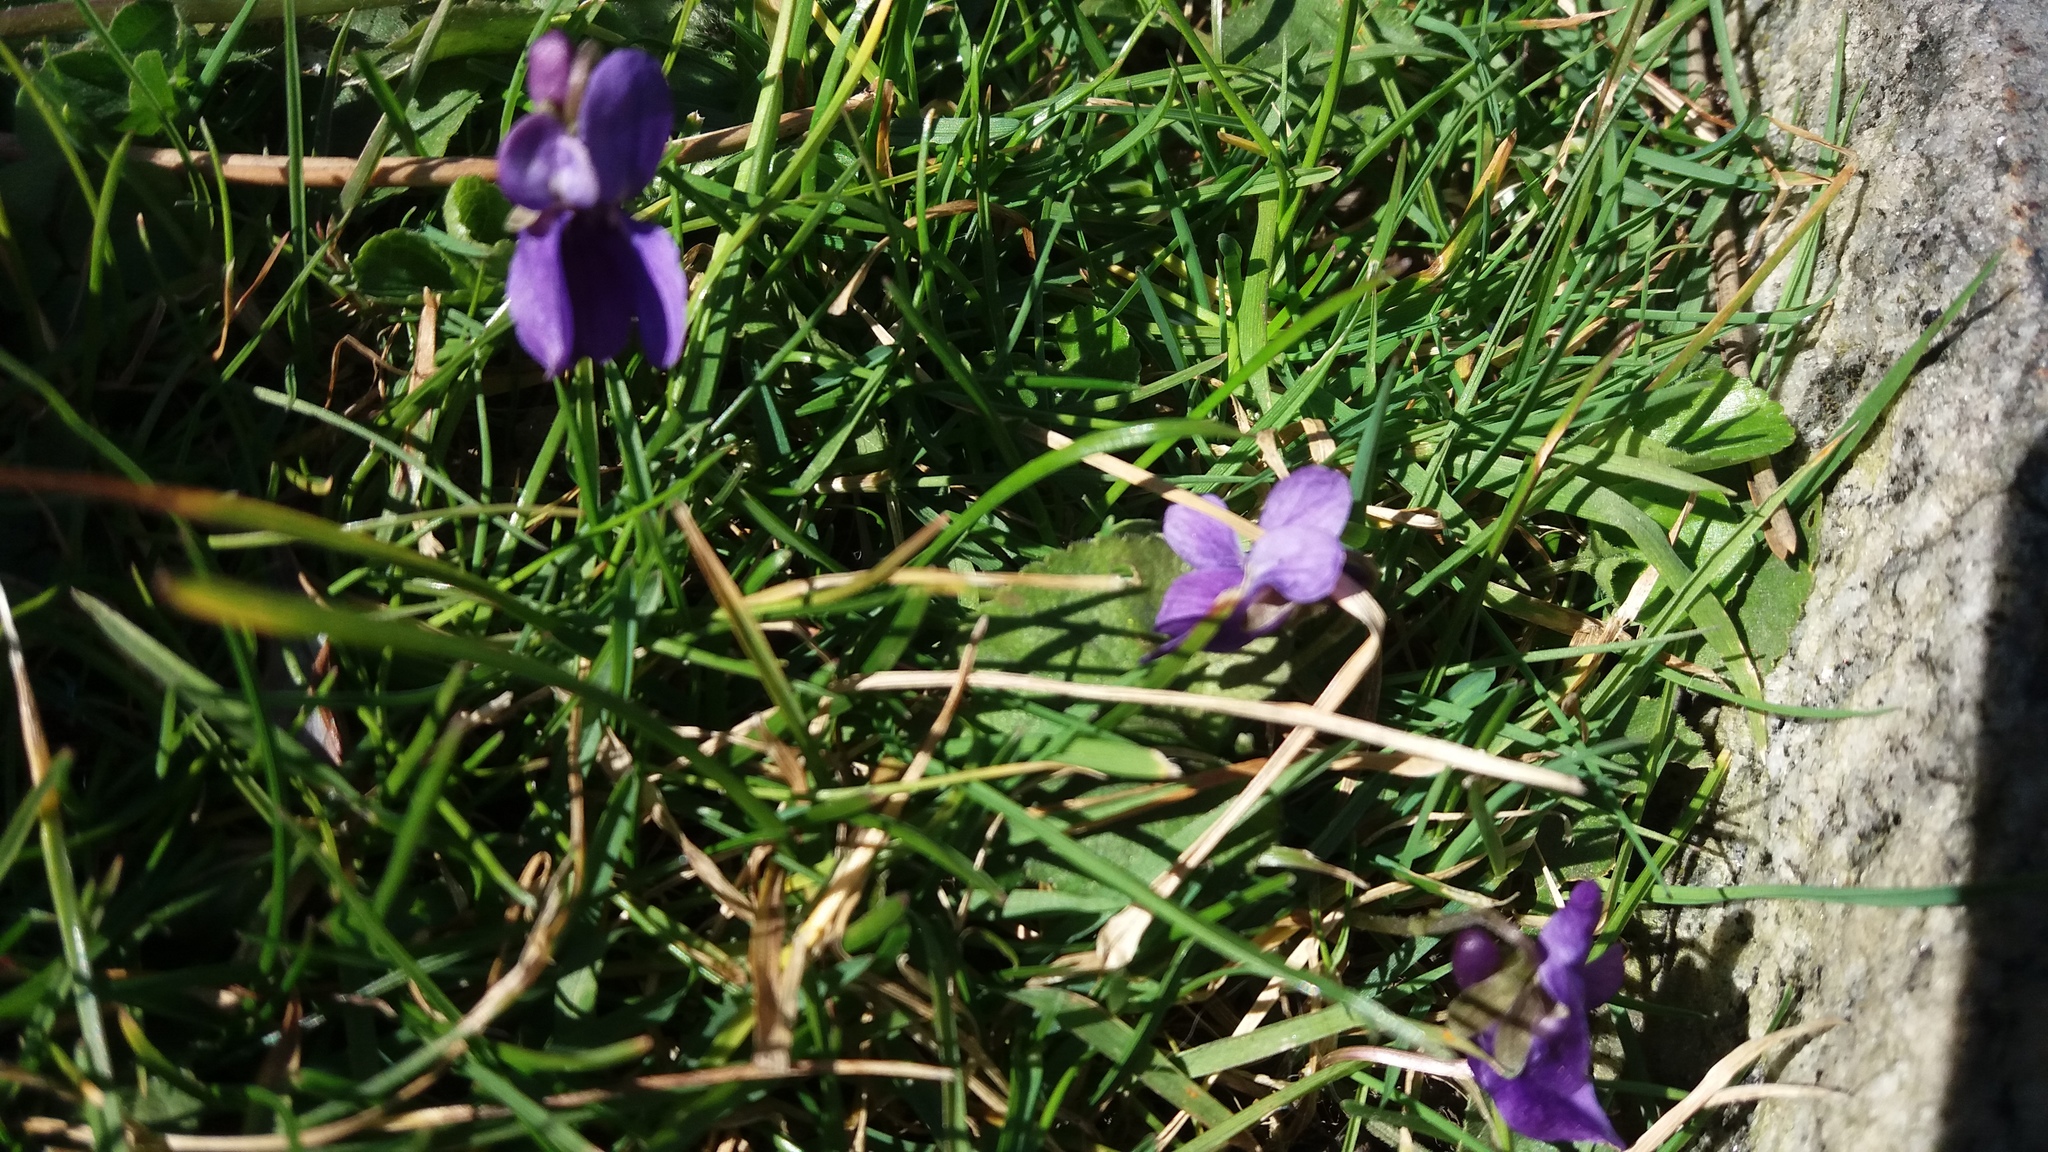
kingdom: Plantae
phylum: Tracheophyta
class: Magnoliopsida
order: Malpighiales
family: Violaceae
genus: Viola
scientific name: Viola odorata
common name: Sweet violet
